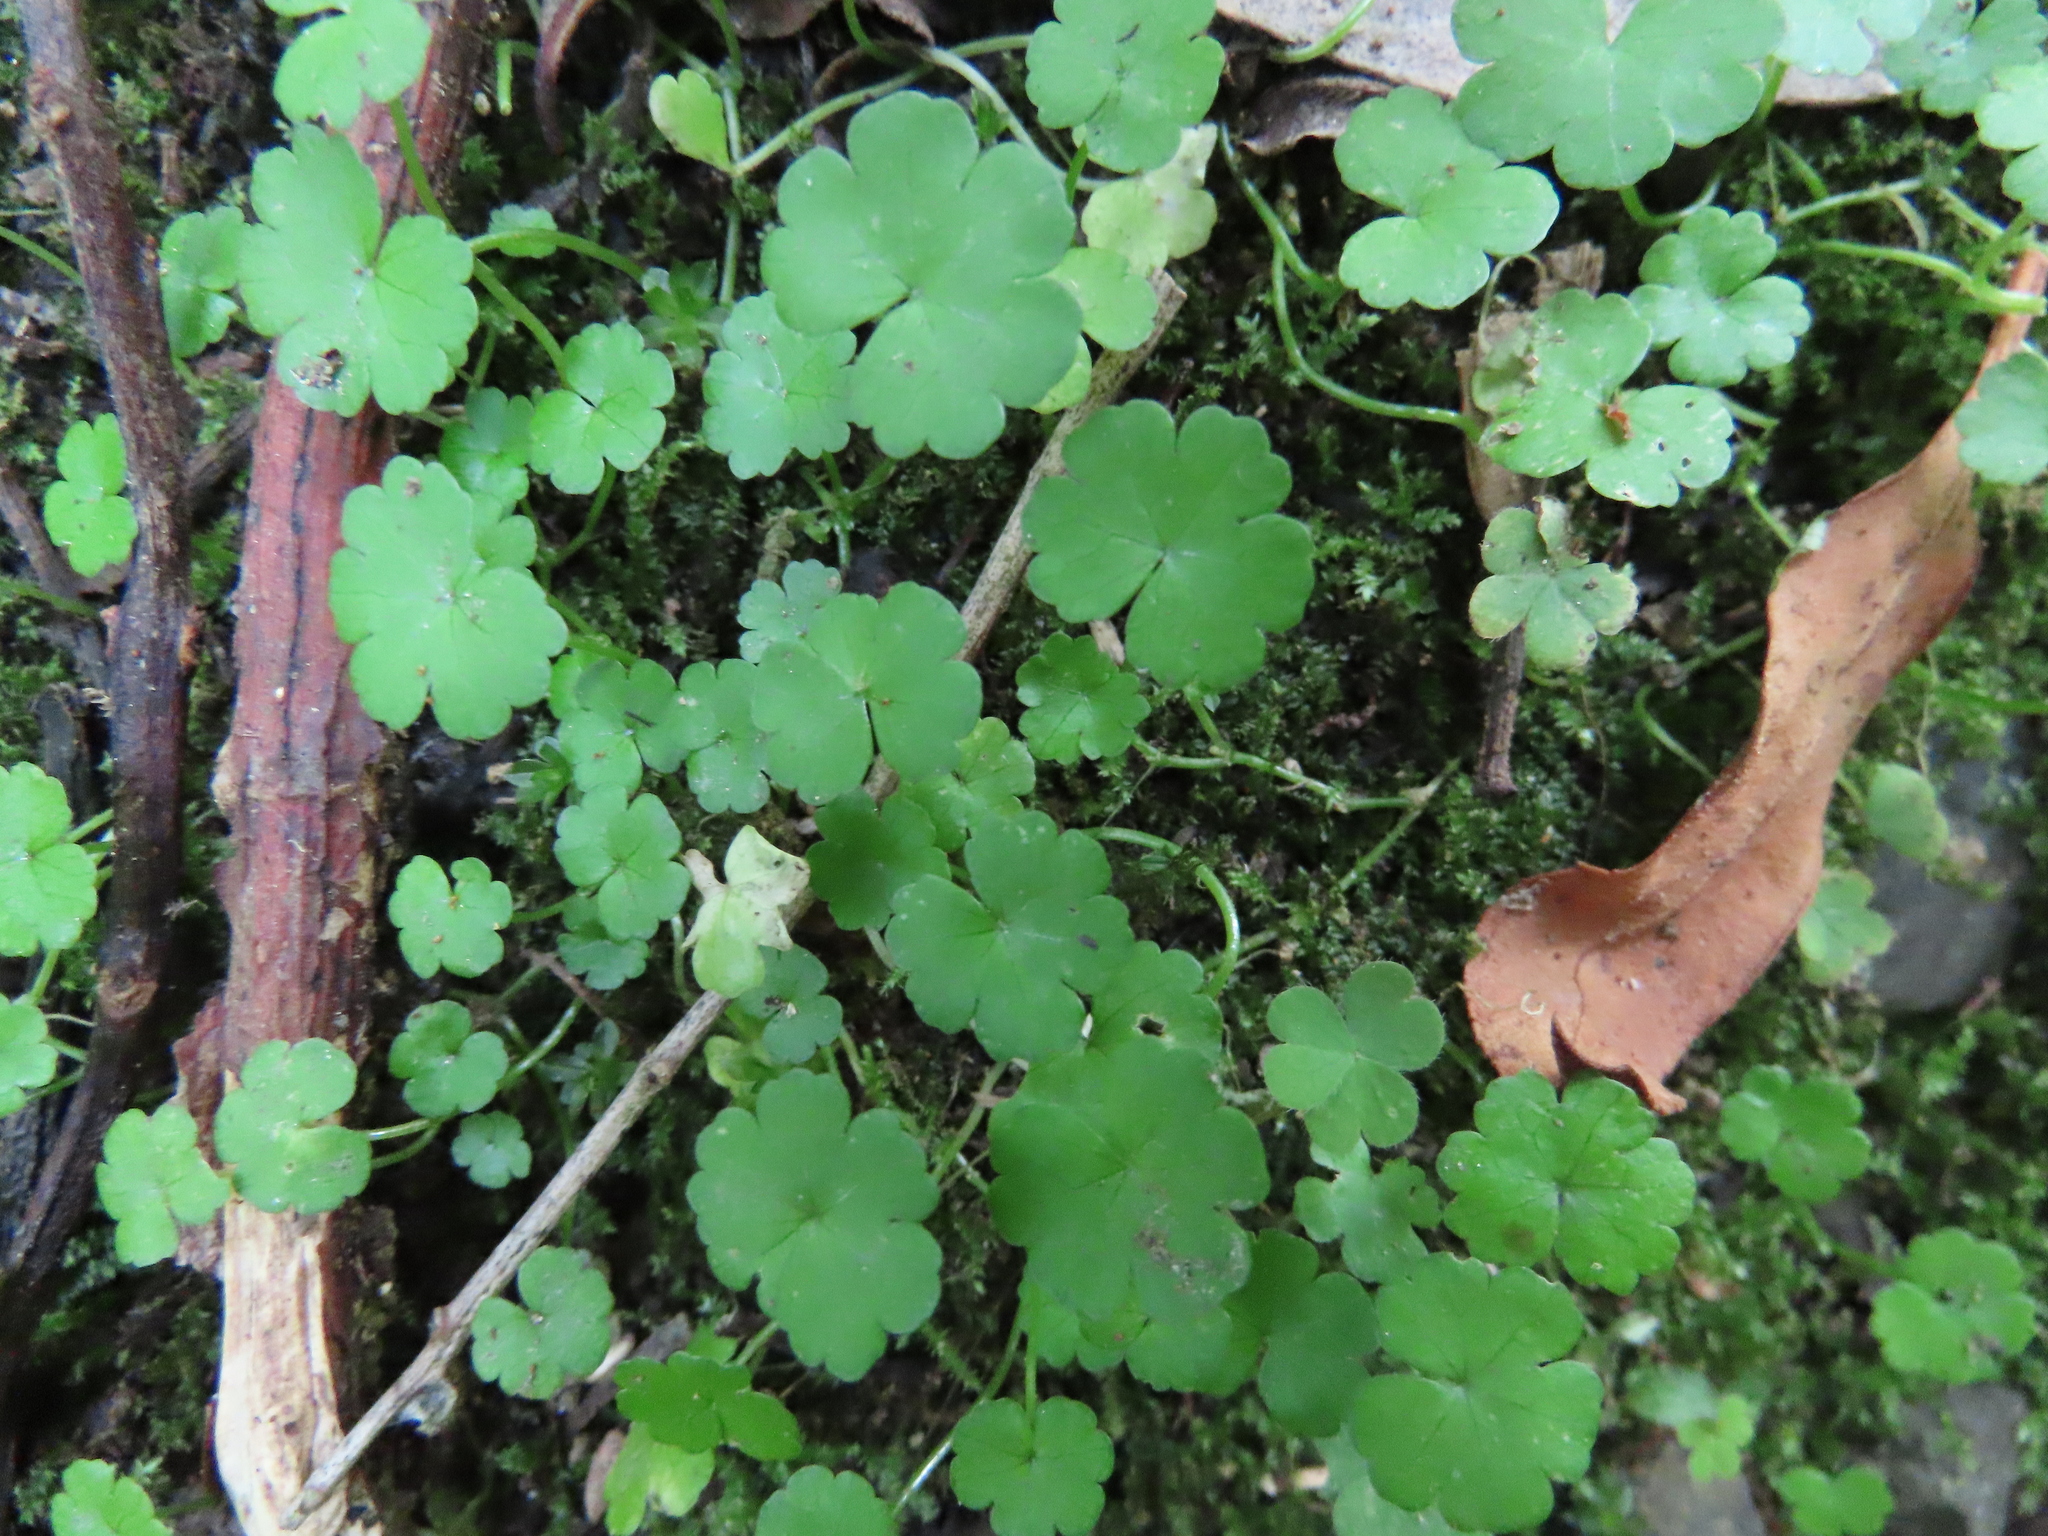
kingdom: Plantae
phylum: Tracheophyta
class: Magnoliopsida
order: Apiales
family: Araliaceae
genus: Hydrocotyle
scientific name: Hydrocotyle heteromeria
